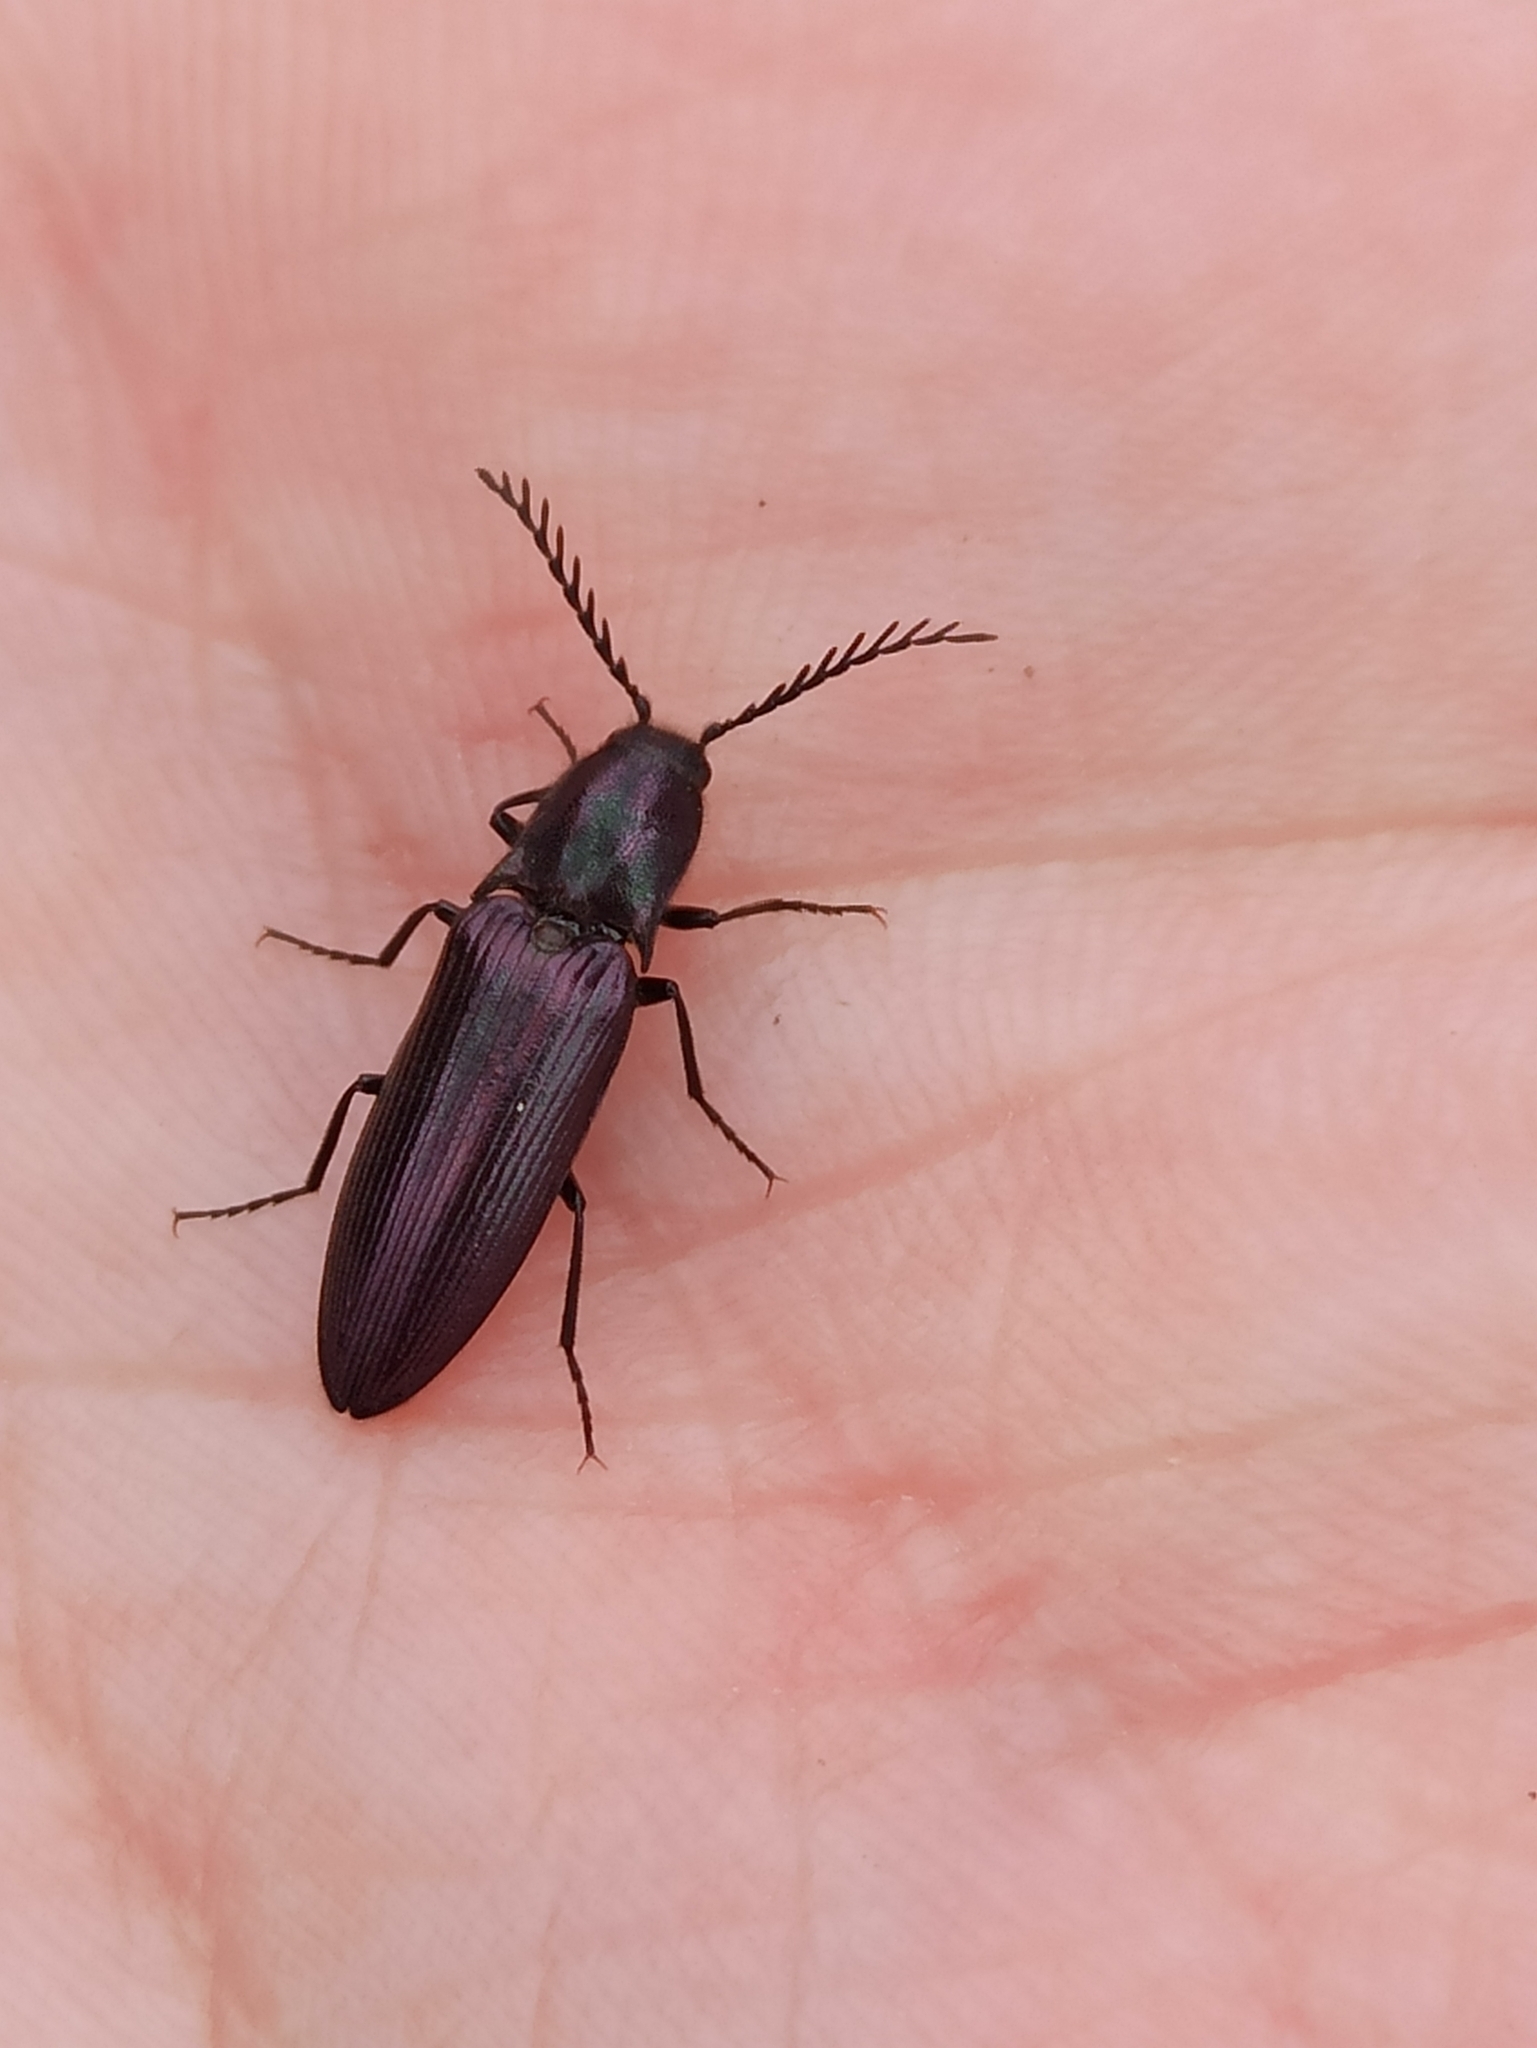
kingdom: Animalia
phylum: Arthropoda
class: Insecta
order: Coleoptera
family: Elateridae
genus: Ctenicera
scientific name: Ctenicera cuprea
